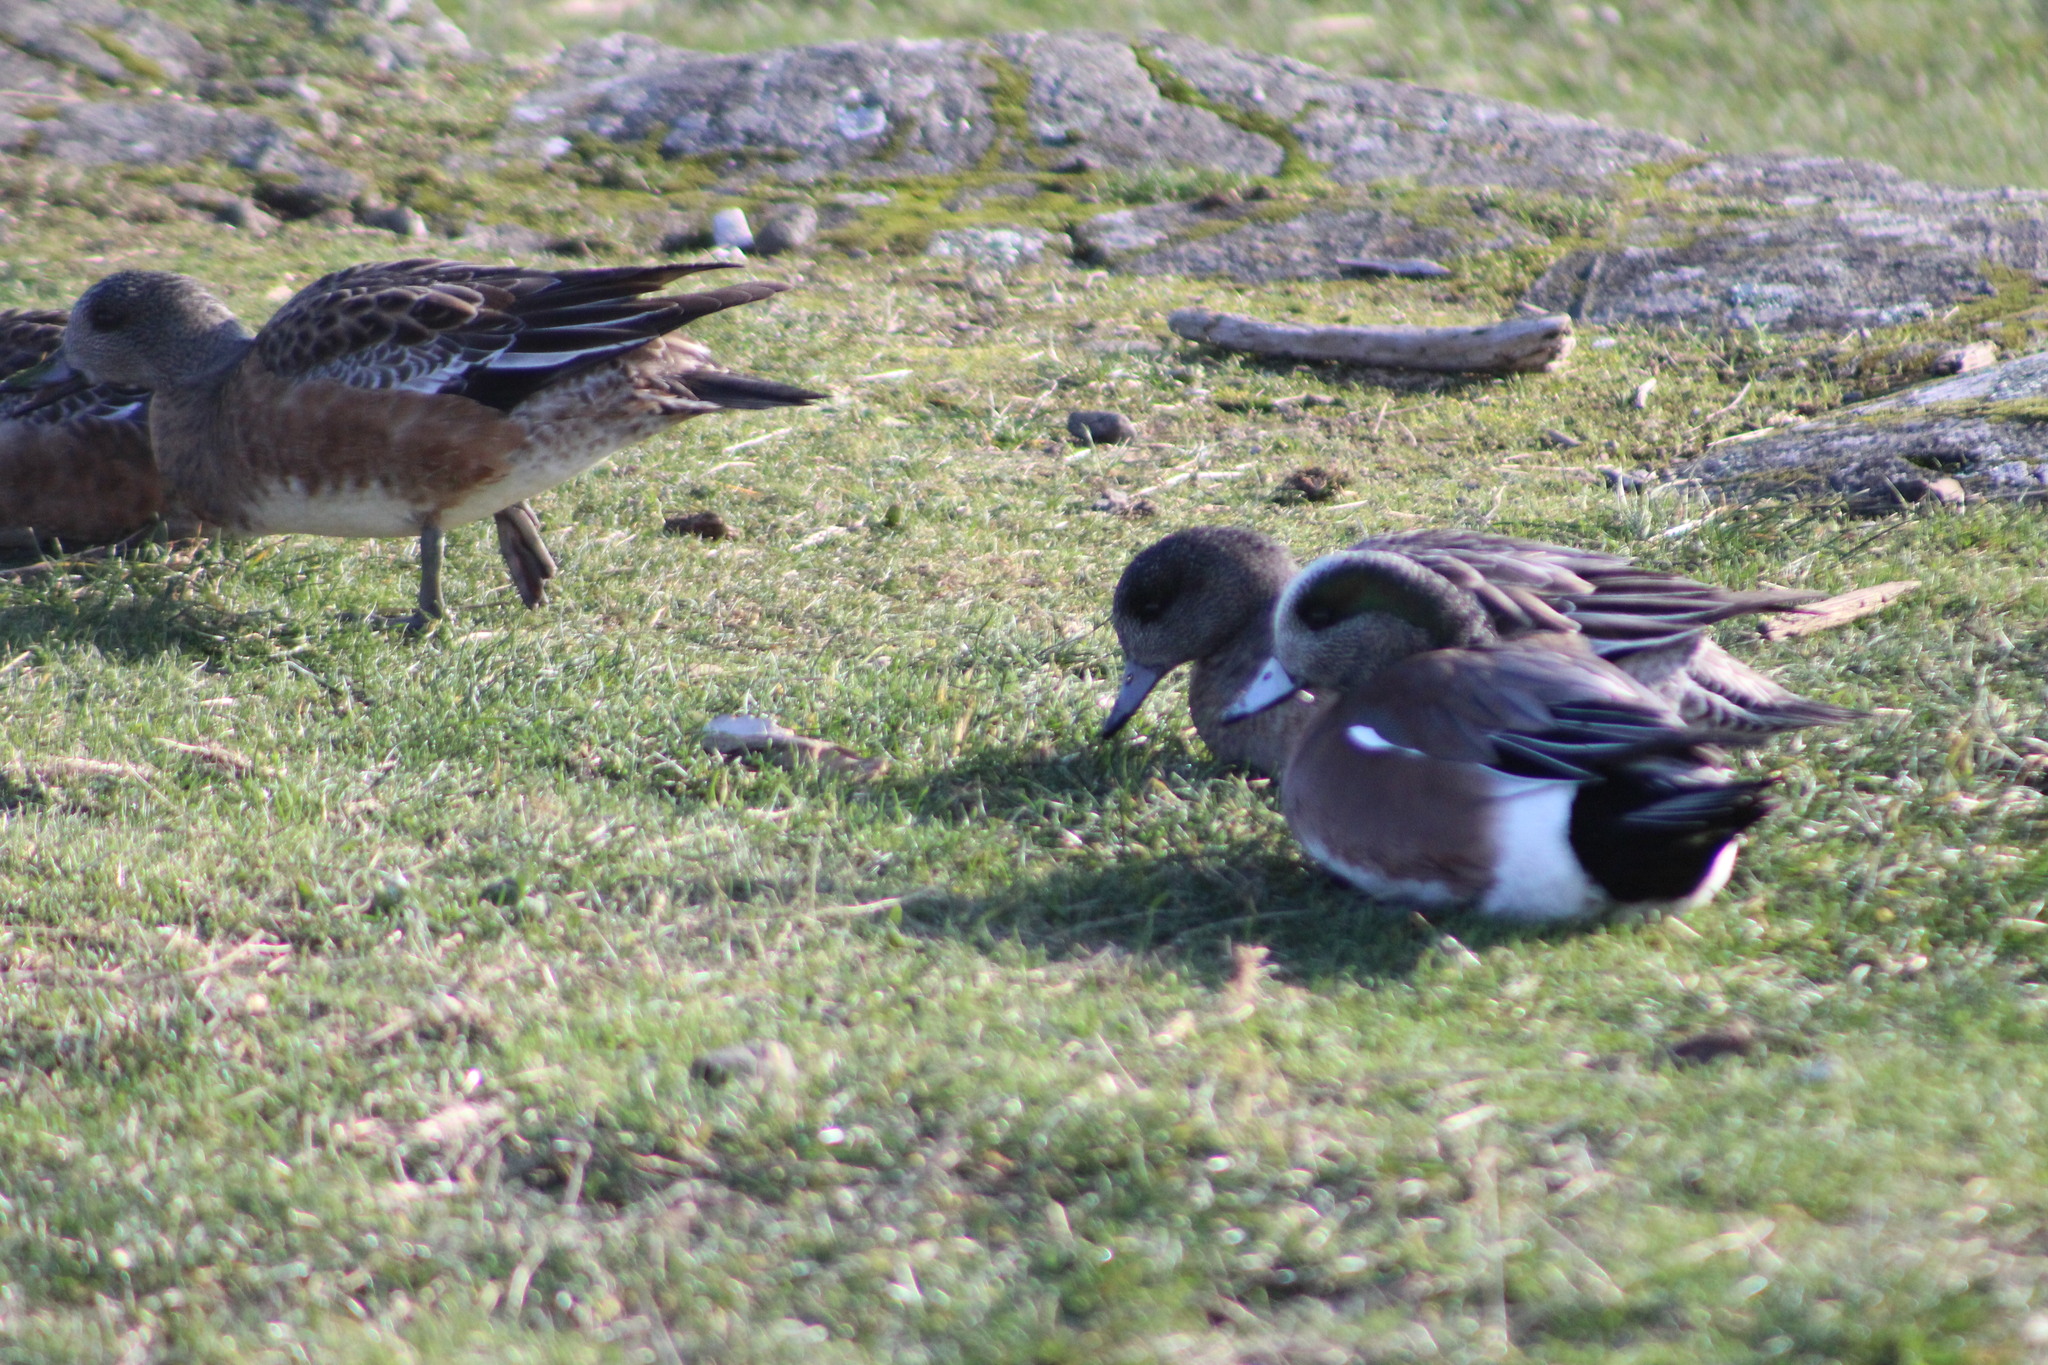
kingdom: Animalia
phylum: Chordata
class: Aves
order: Anseriformes
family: Anatidae
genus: Mareca
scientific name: Mareca americana
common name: American wigeon
